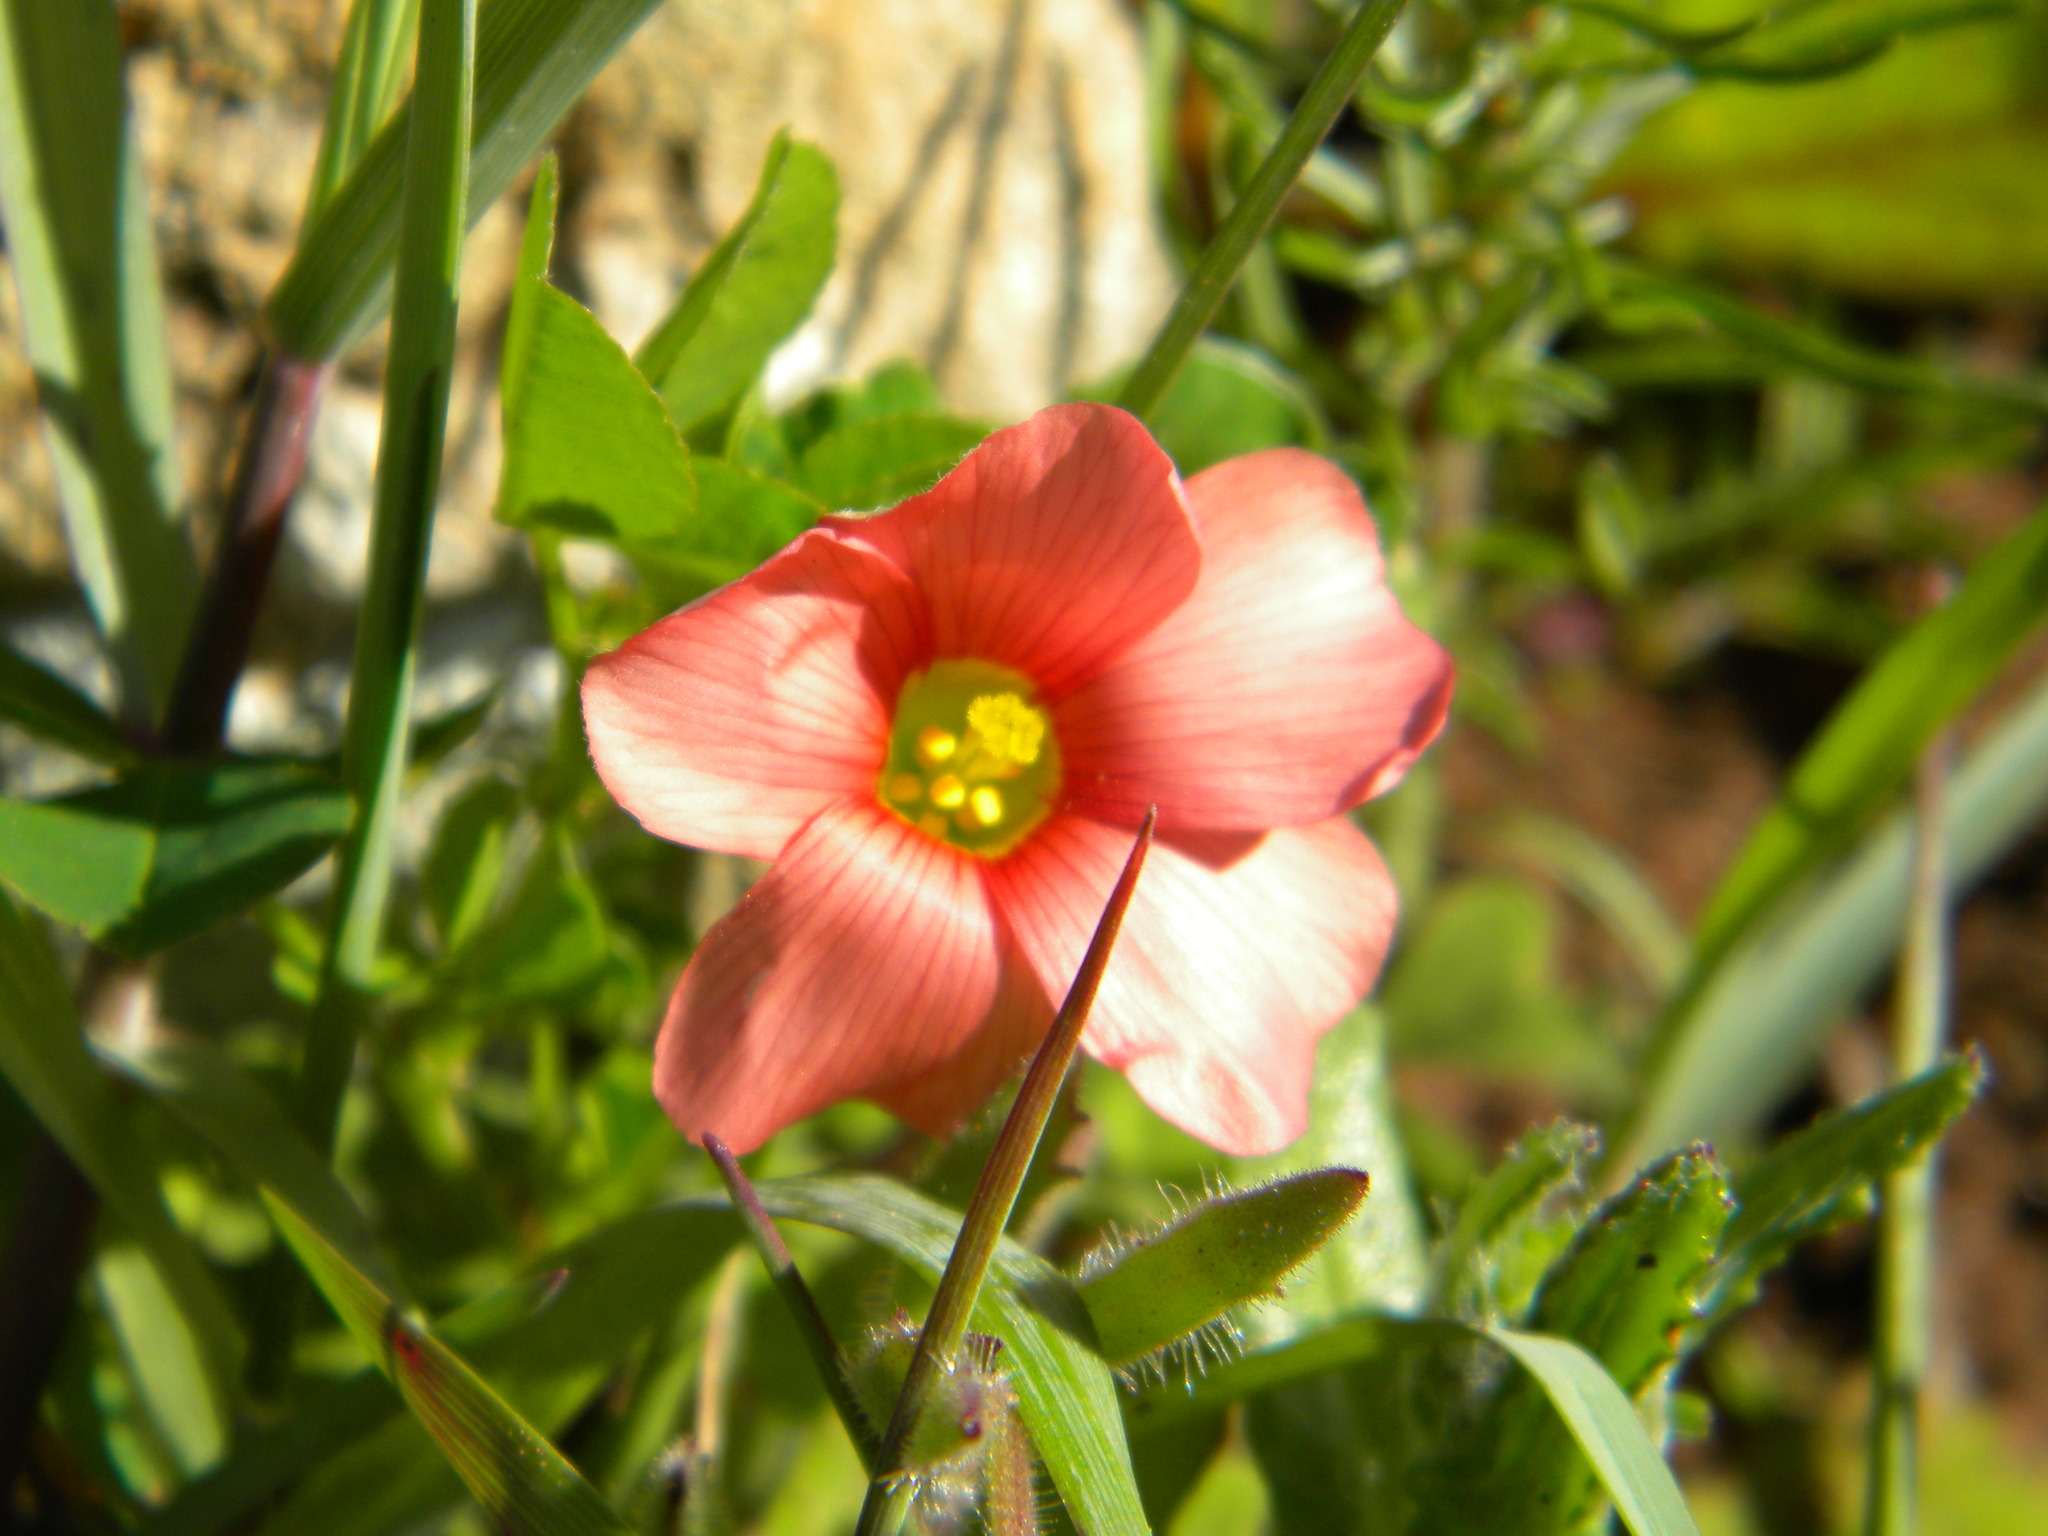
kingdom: Plantae
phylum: Tracheophyta
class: Magnoliopsida
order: Oxalidales
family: Oxalidaceae
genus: Oxalis
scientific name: Oxalis obtusa
